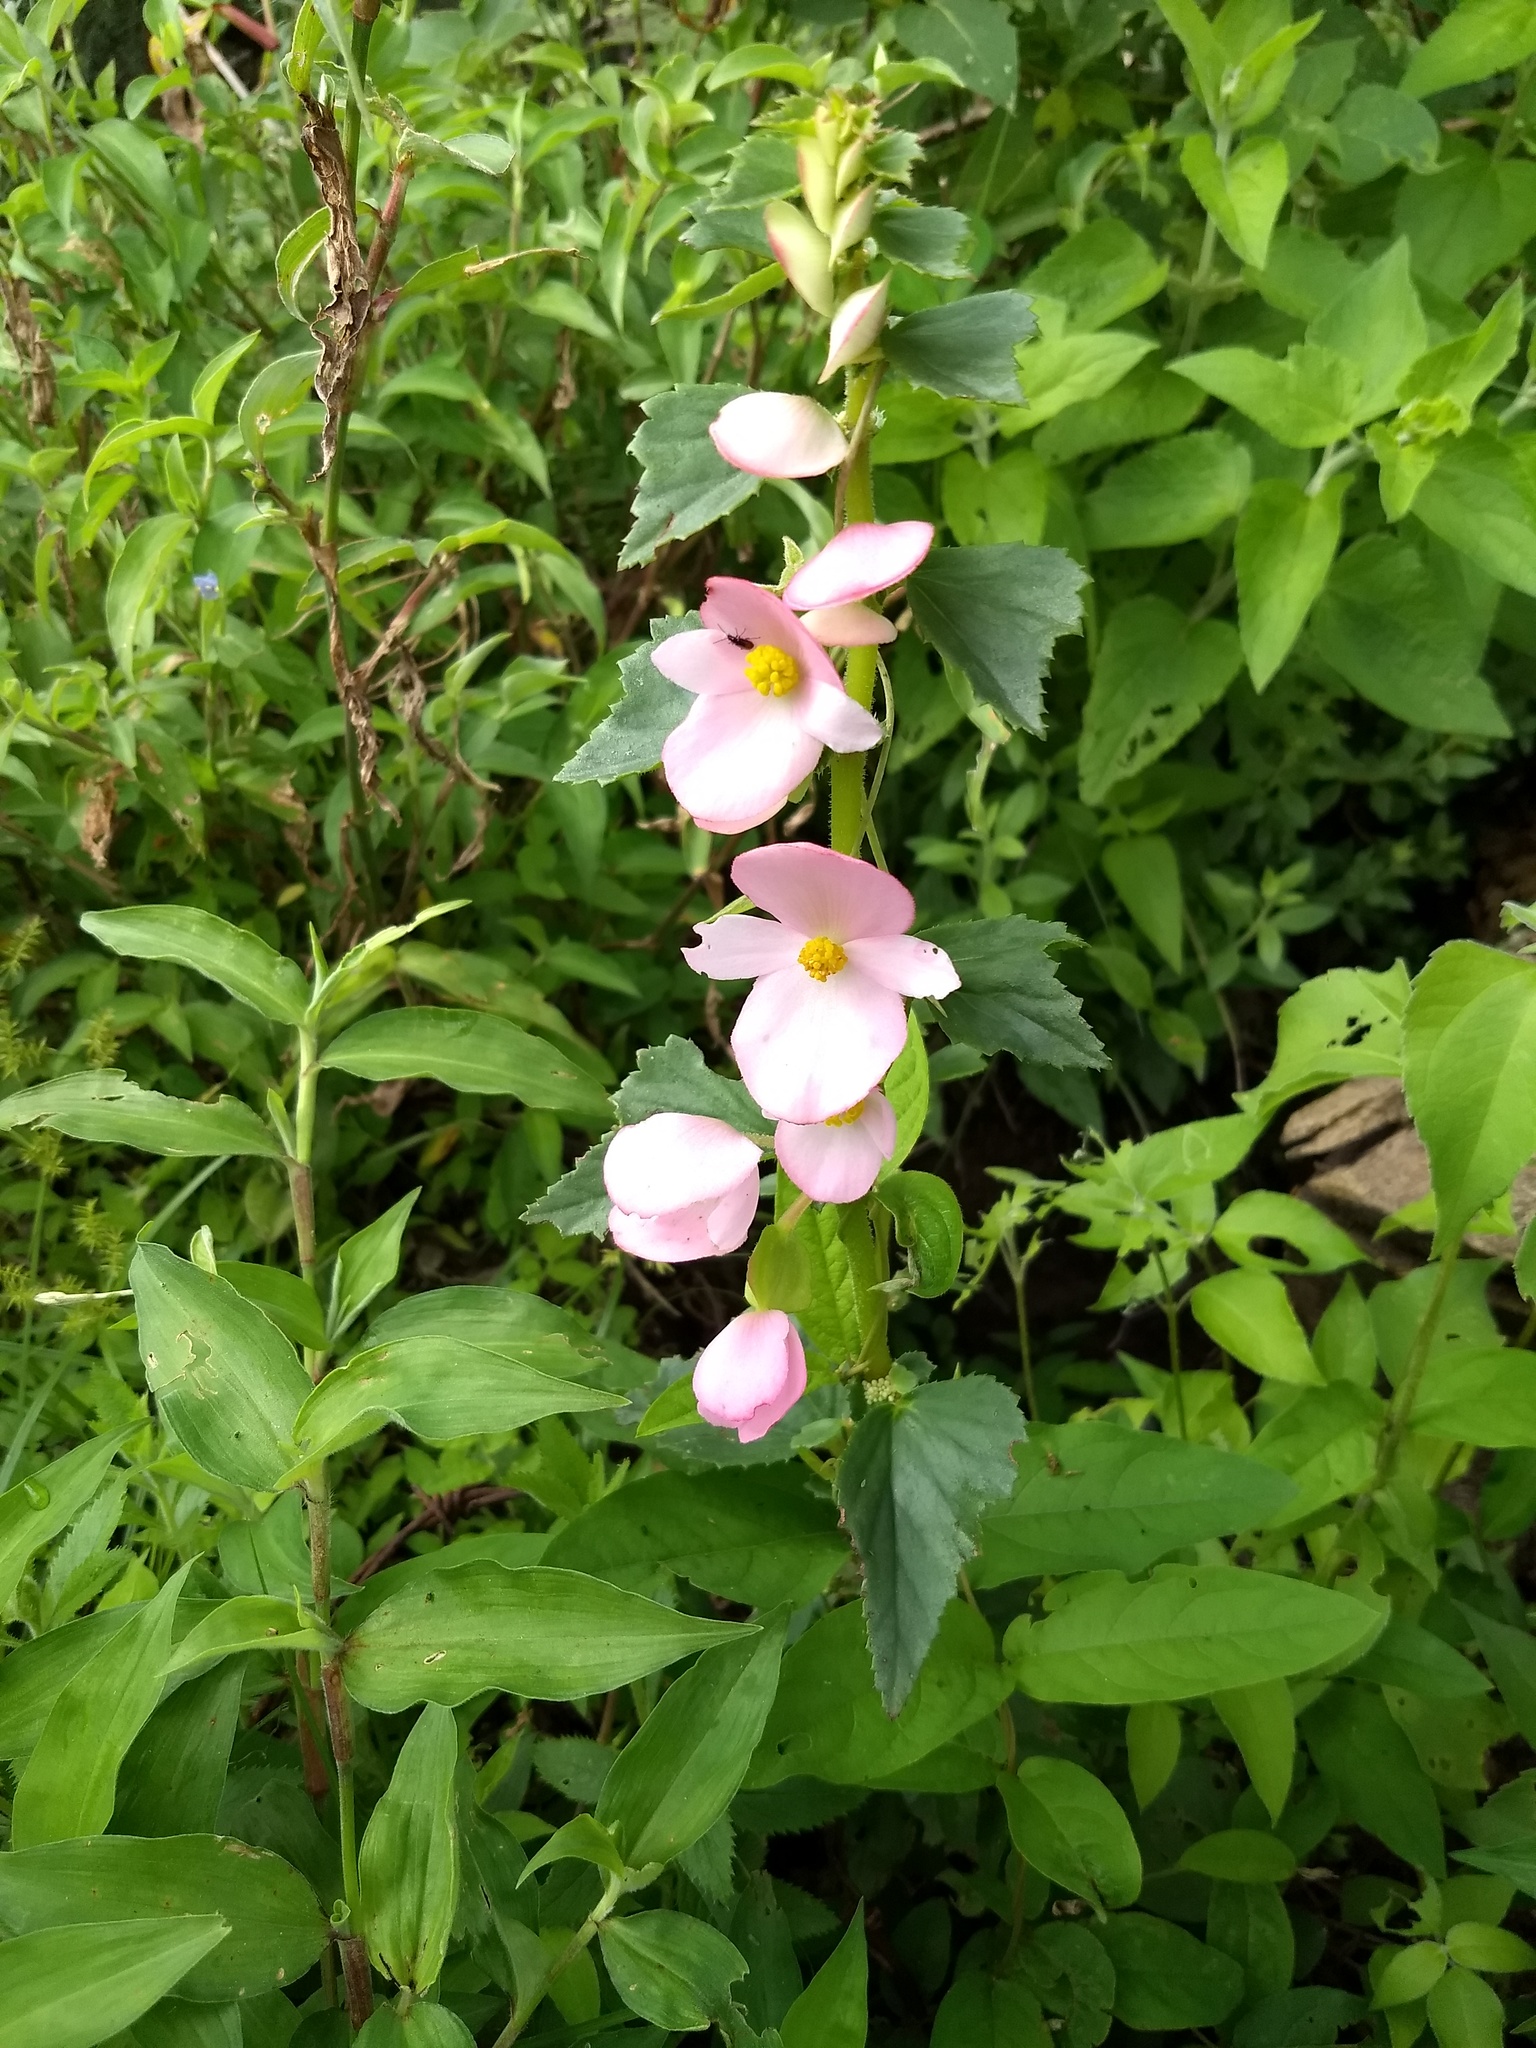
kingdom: Plantae
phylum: Tracheophyta
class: Magnoliopsida
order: Cucurbitales
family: Begoniaceae
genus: Begonia
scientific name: Begonia gracilis
